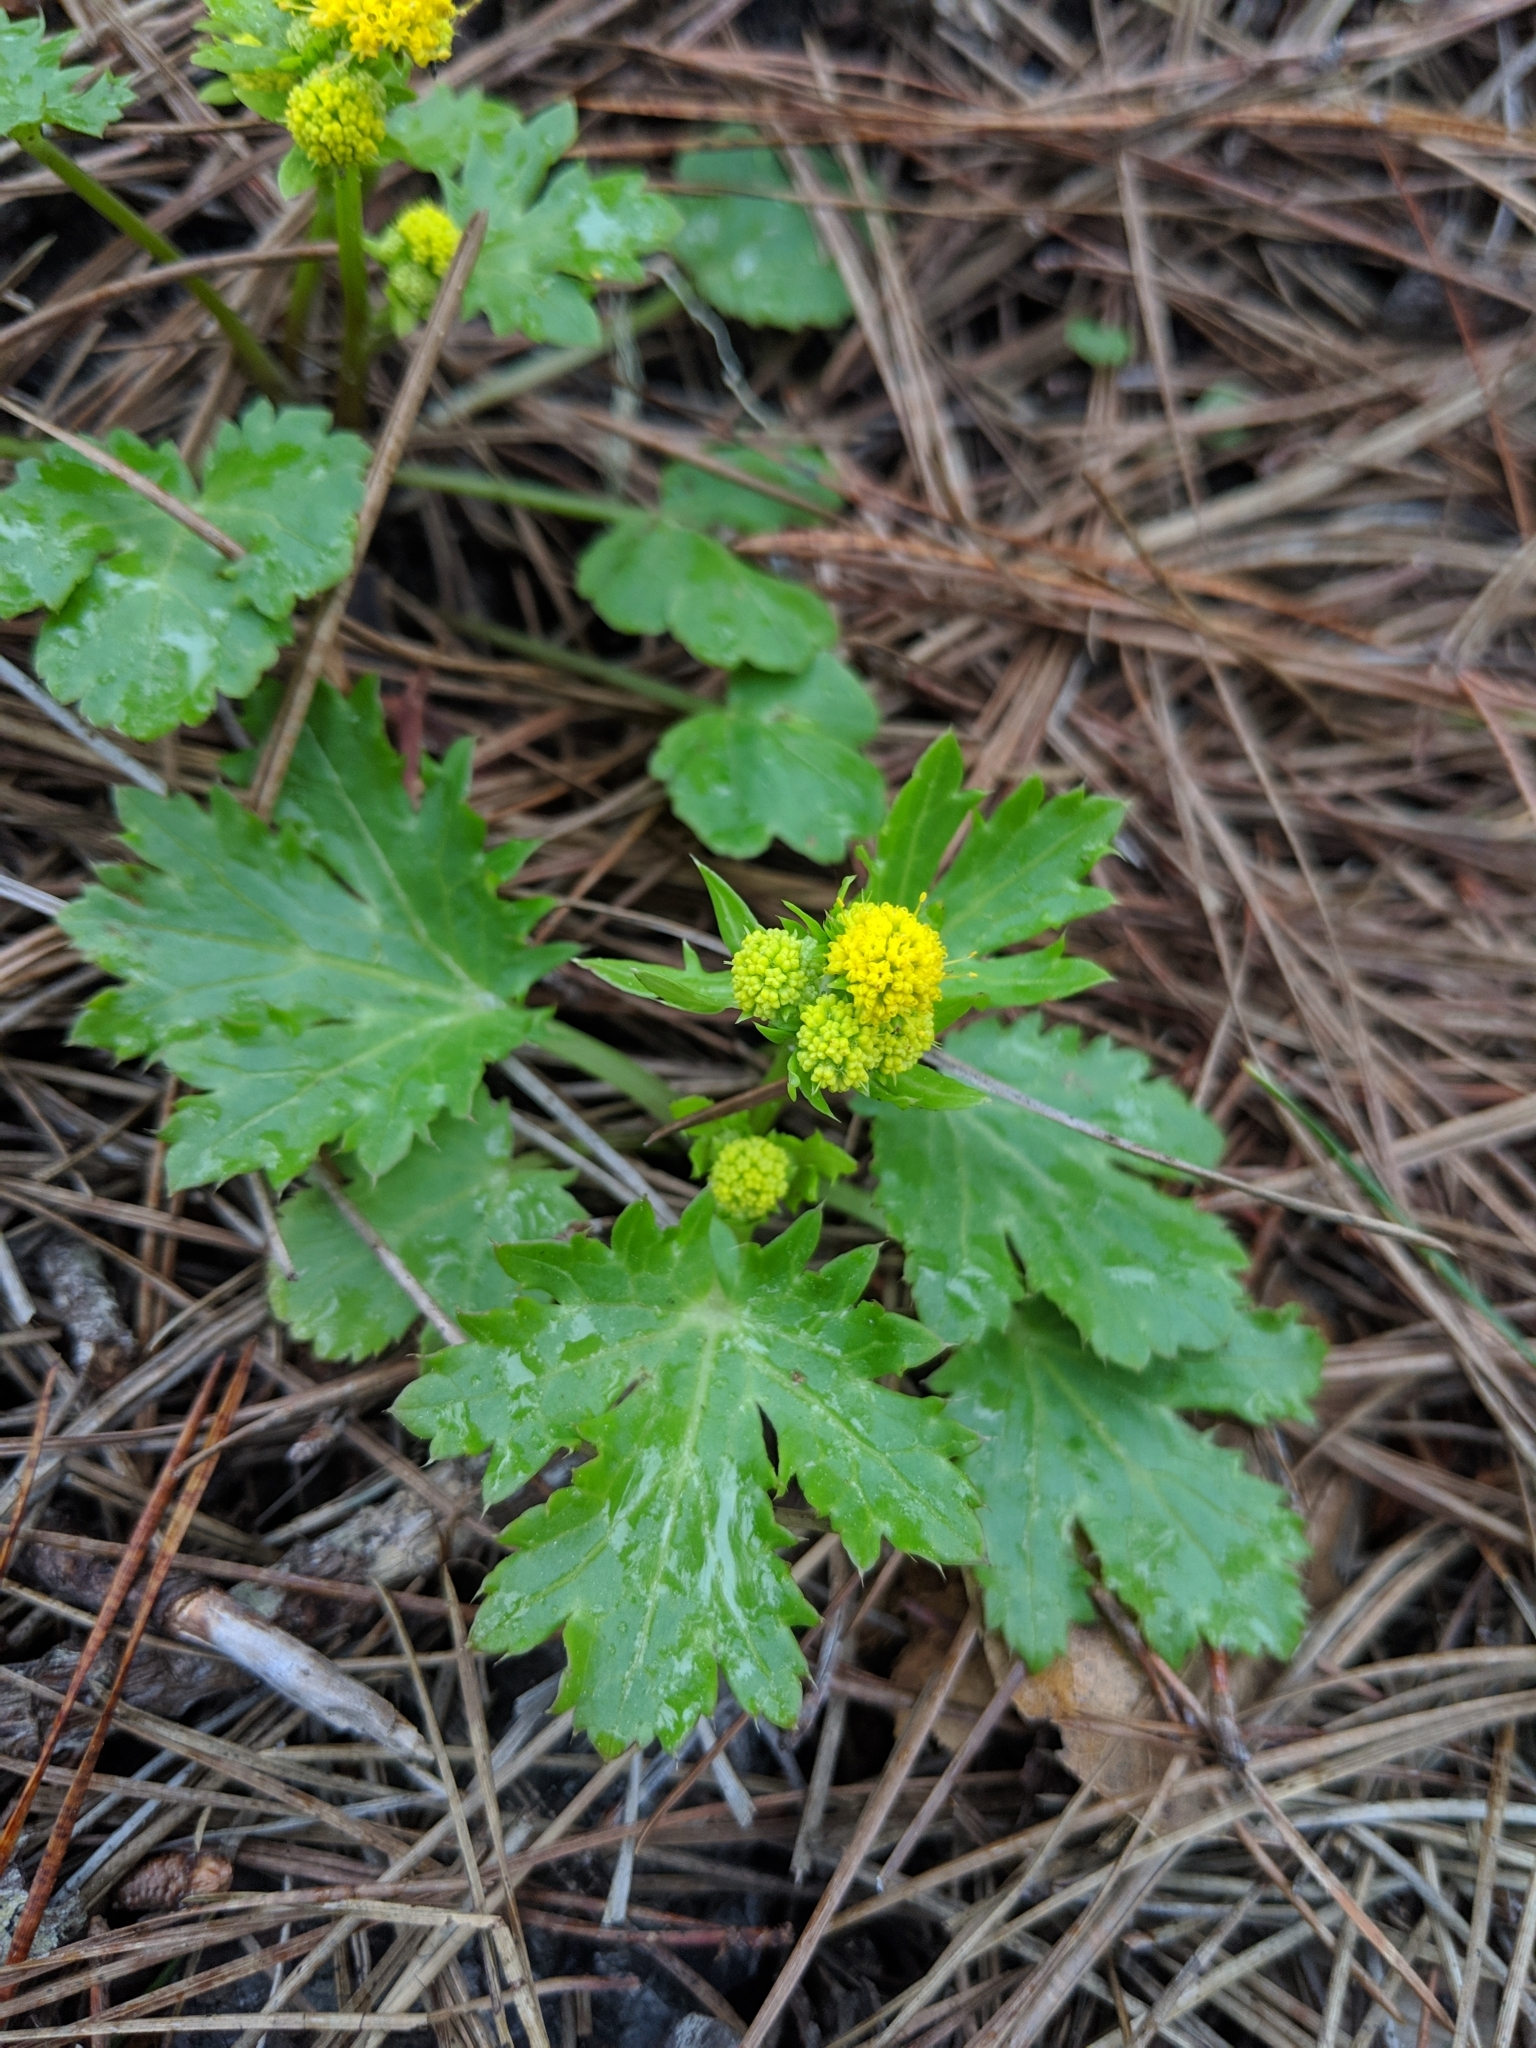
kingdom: Plantae
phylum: Tracheophyta
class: Magnoliopsida
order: Apiales
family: Apiaceae
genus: Sanicula
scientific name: Sanicula crassicaulis
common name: Western snakeroot
